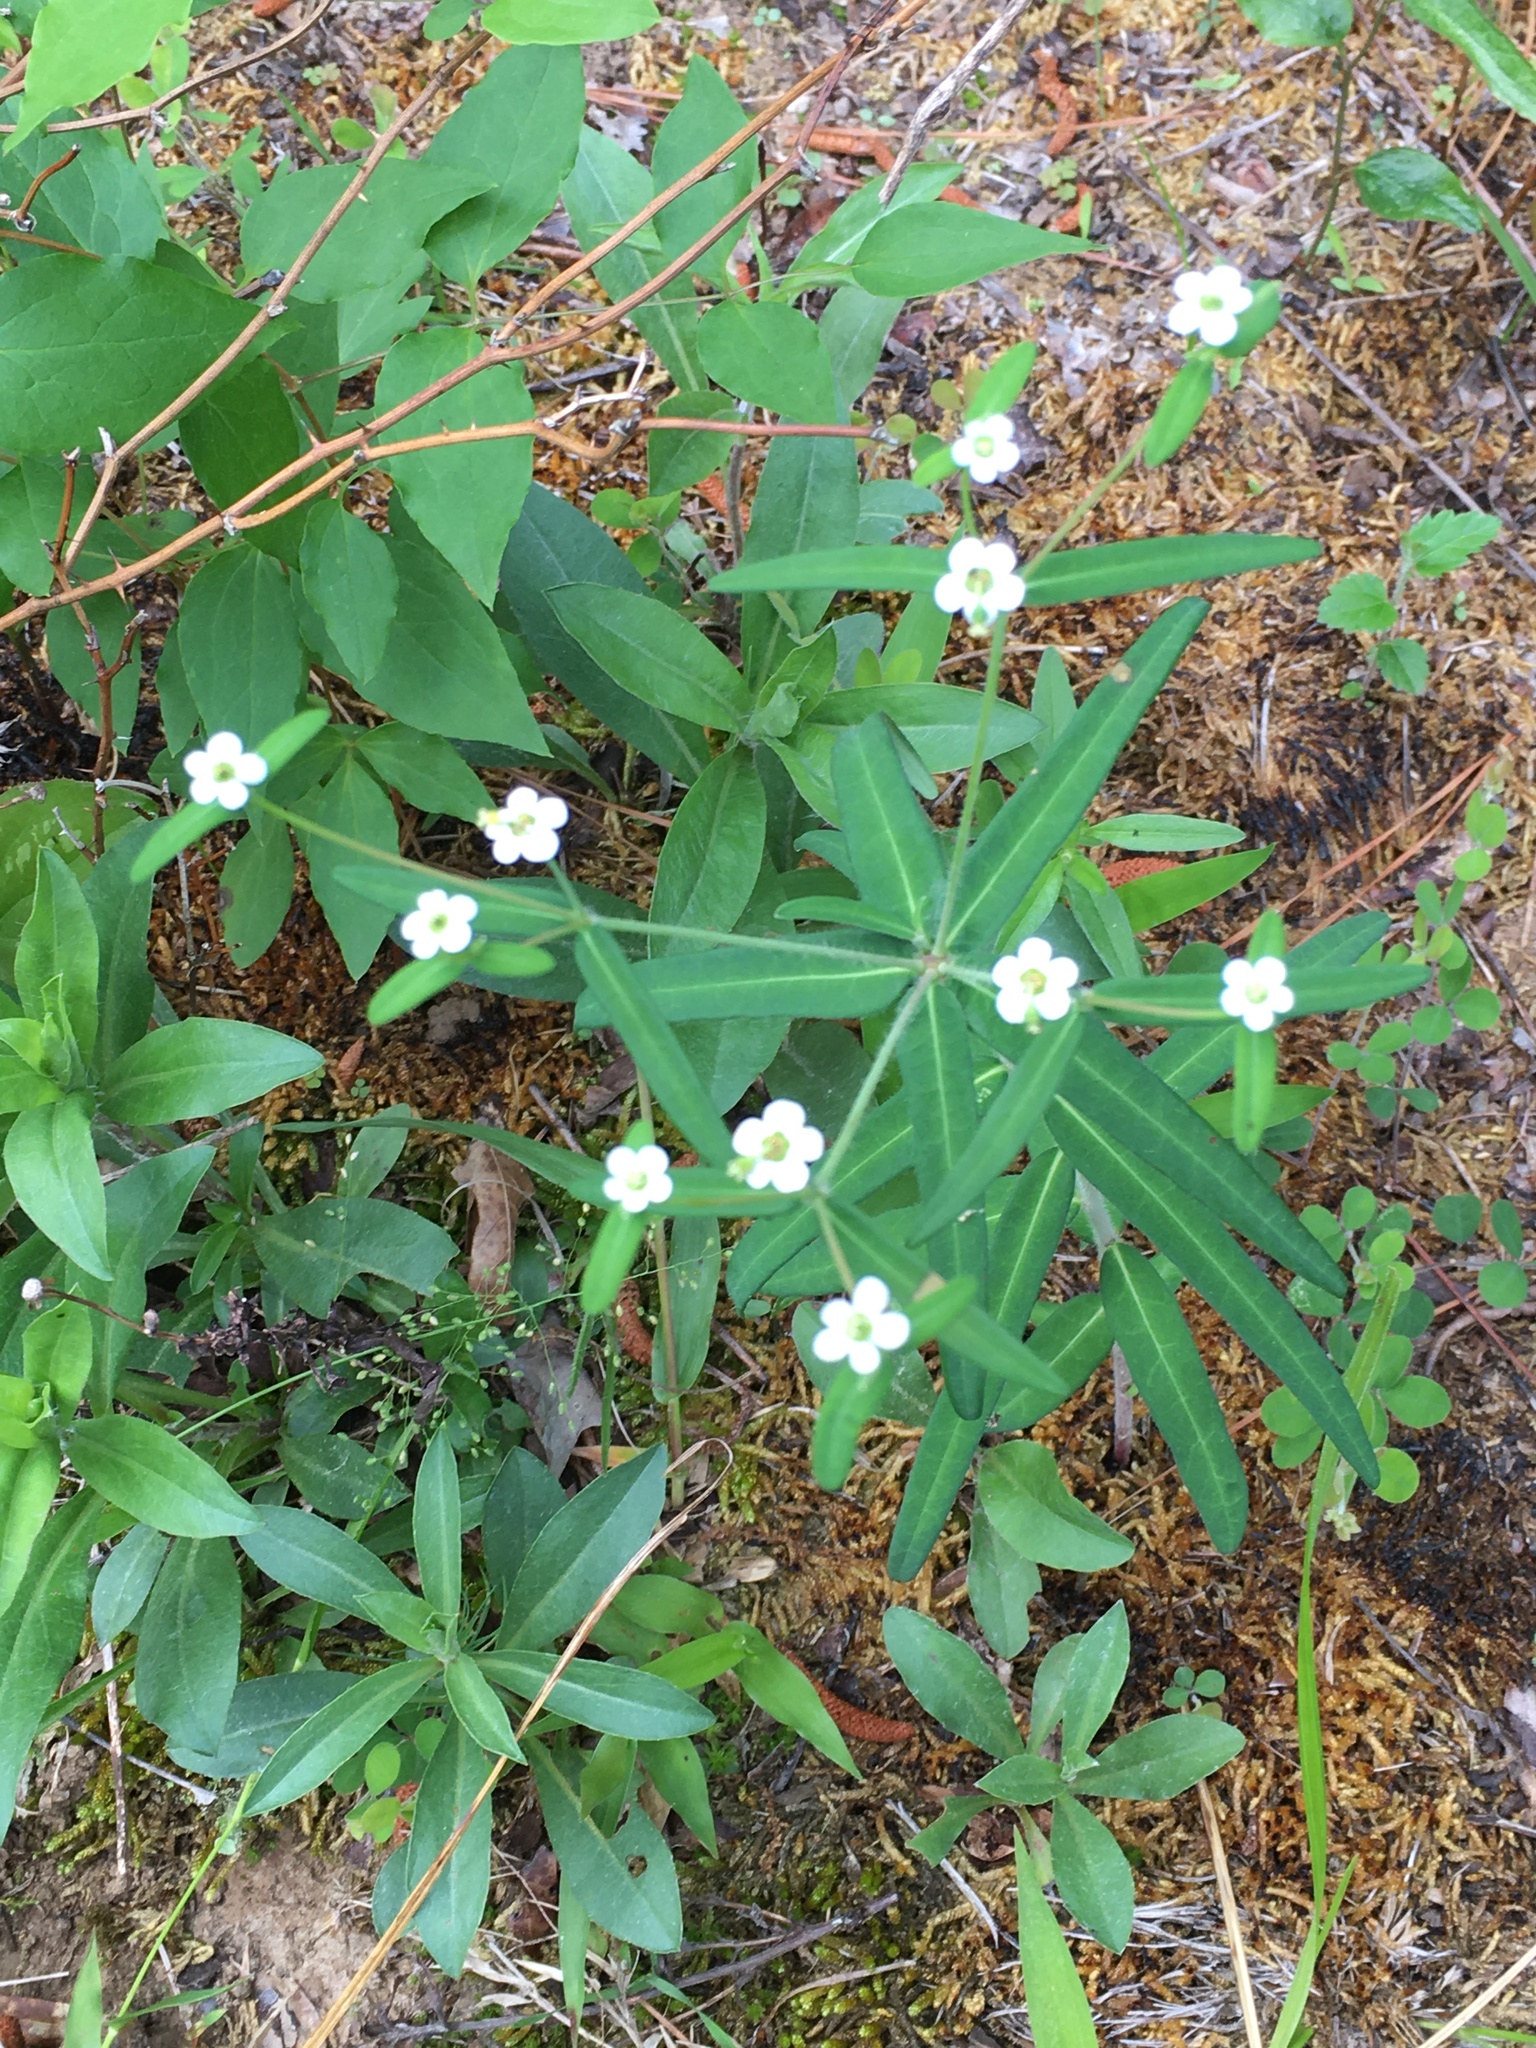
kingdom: Plantae
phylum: Tracheophyta
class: Magnoliopsida
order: Malpighiales
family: Euphorbiaceae
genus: Euphorbia
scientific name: Euphorbia pubentissima
